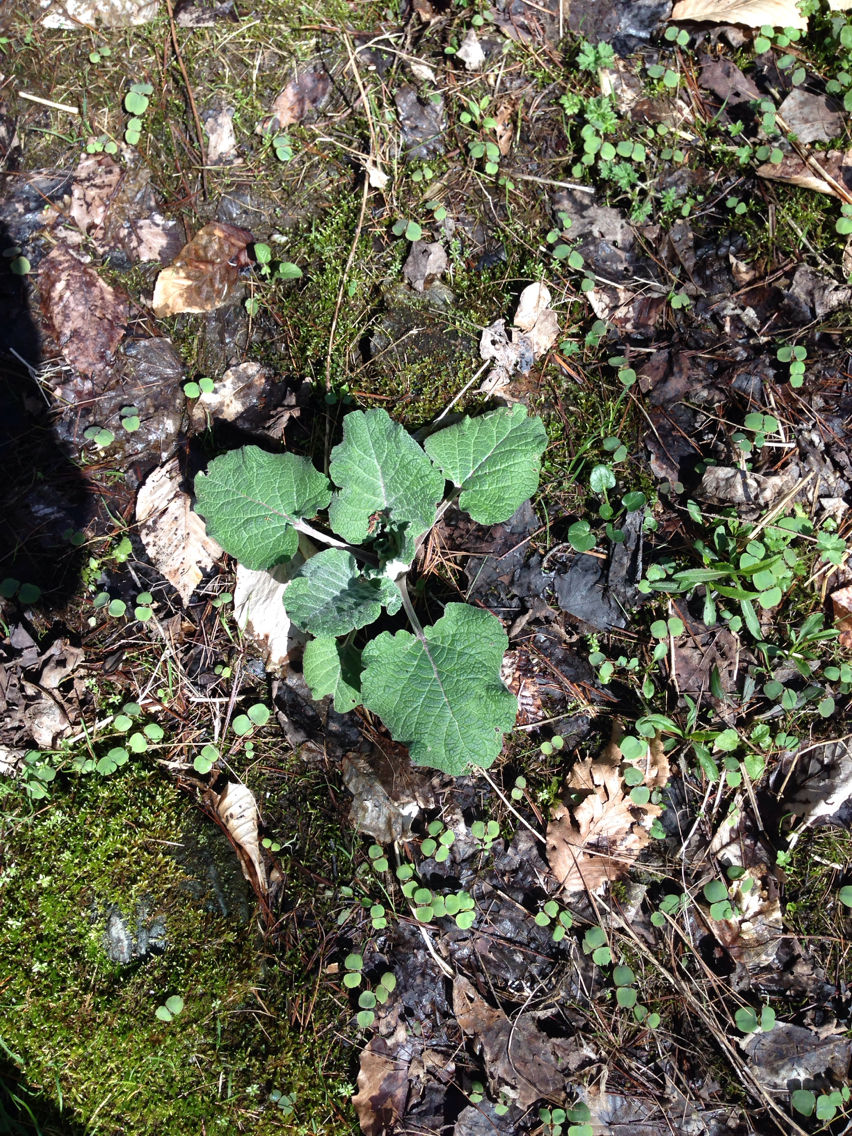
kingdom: Plantae
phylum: Tracheophyta
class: Magnoliopsida
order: Asterales
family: Asteraceae
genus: Arctium
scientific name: Arctium
